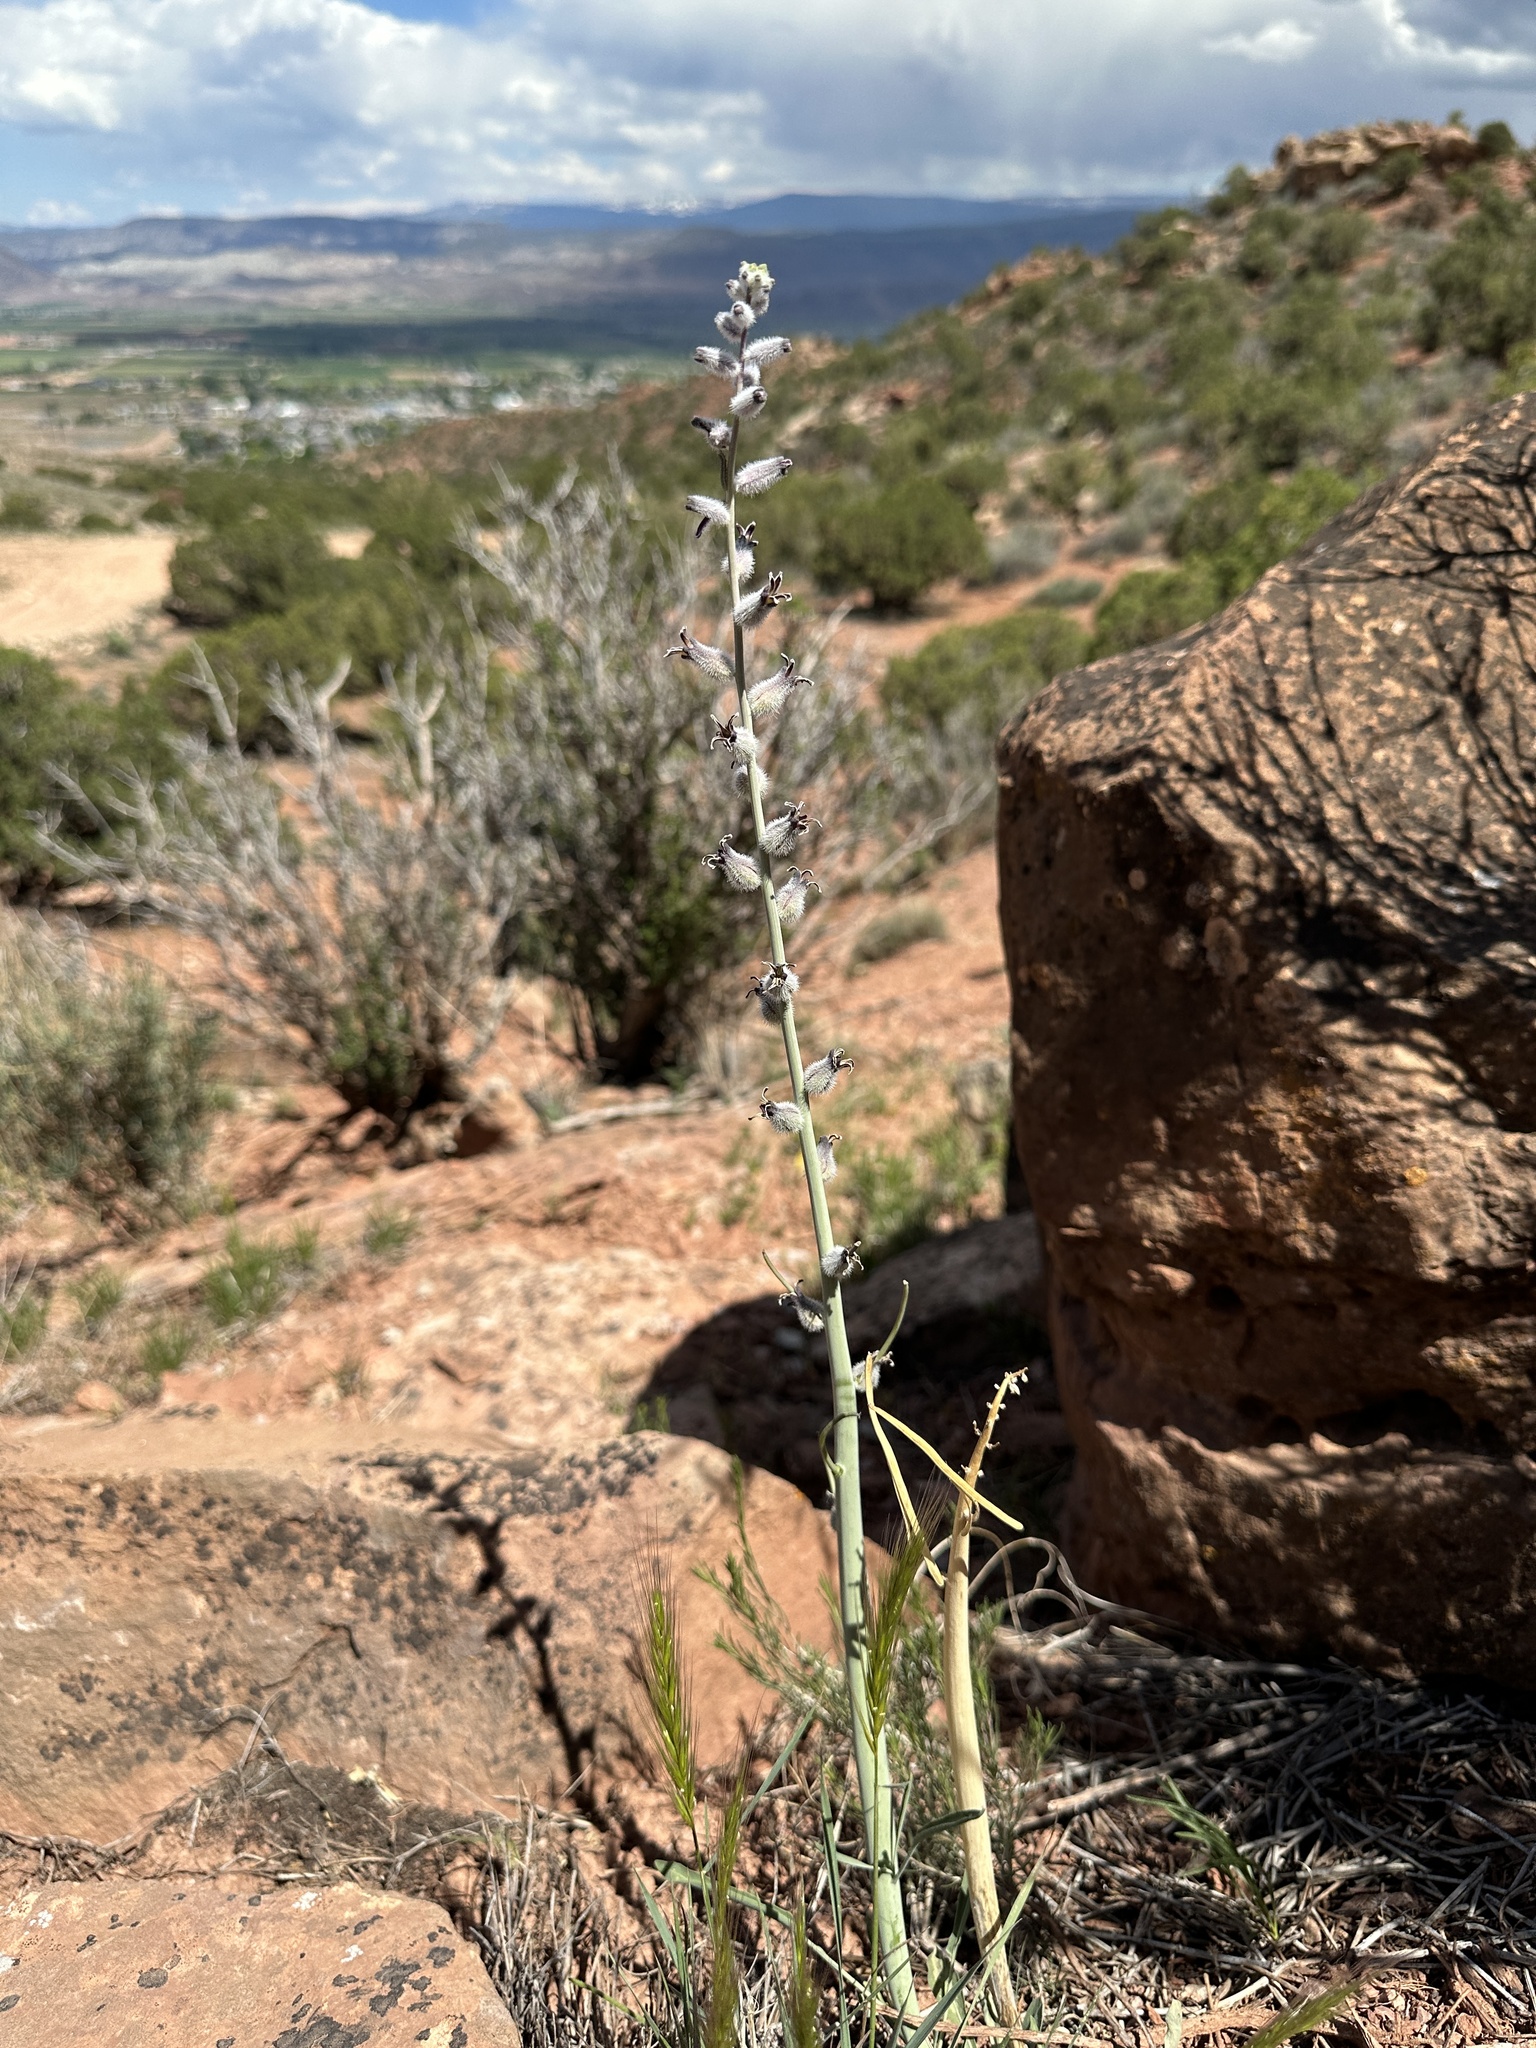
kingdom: Plantae
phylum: Tracheophyta
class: Magnoliopsida
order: Brassicales
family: Brassicaceae
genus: Streptanthus
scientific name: Streptanthus crassicaulis
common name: Thick-stem wild cabbage
